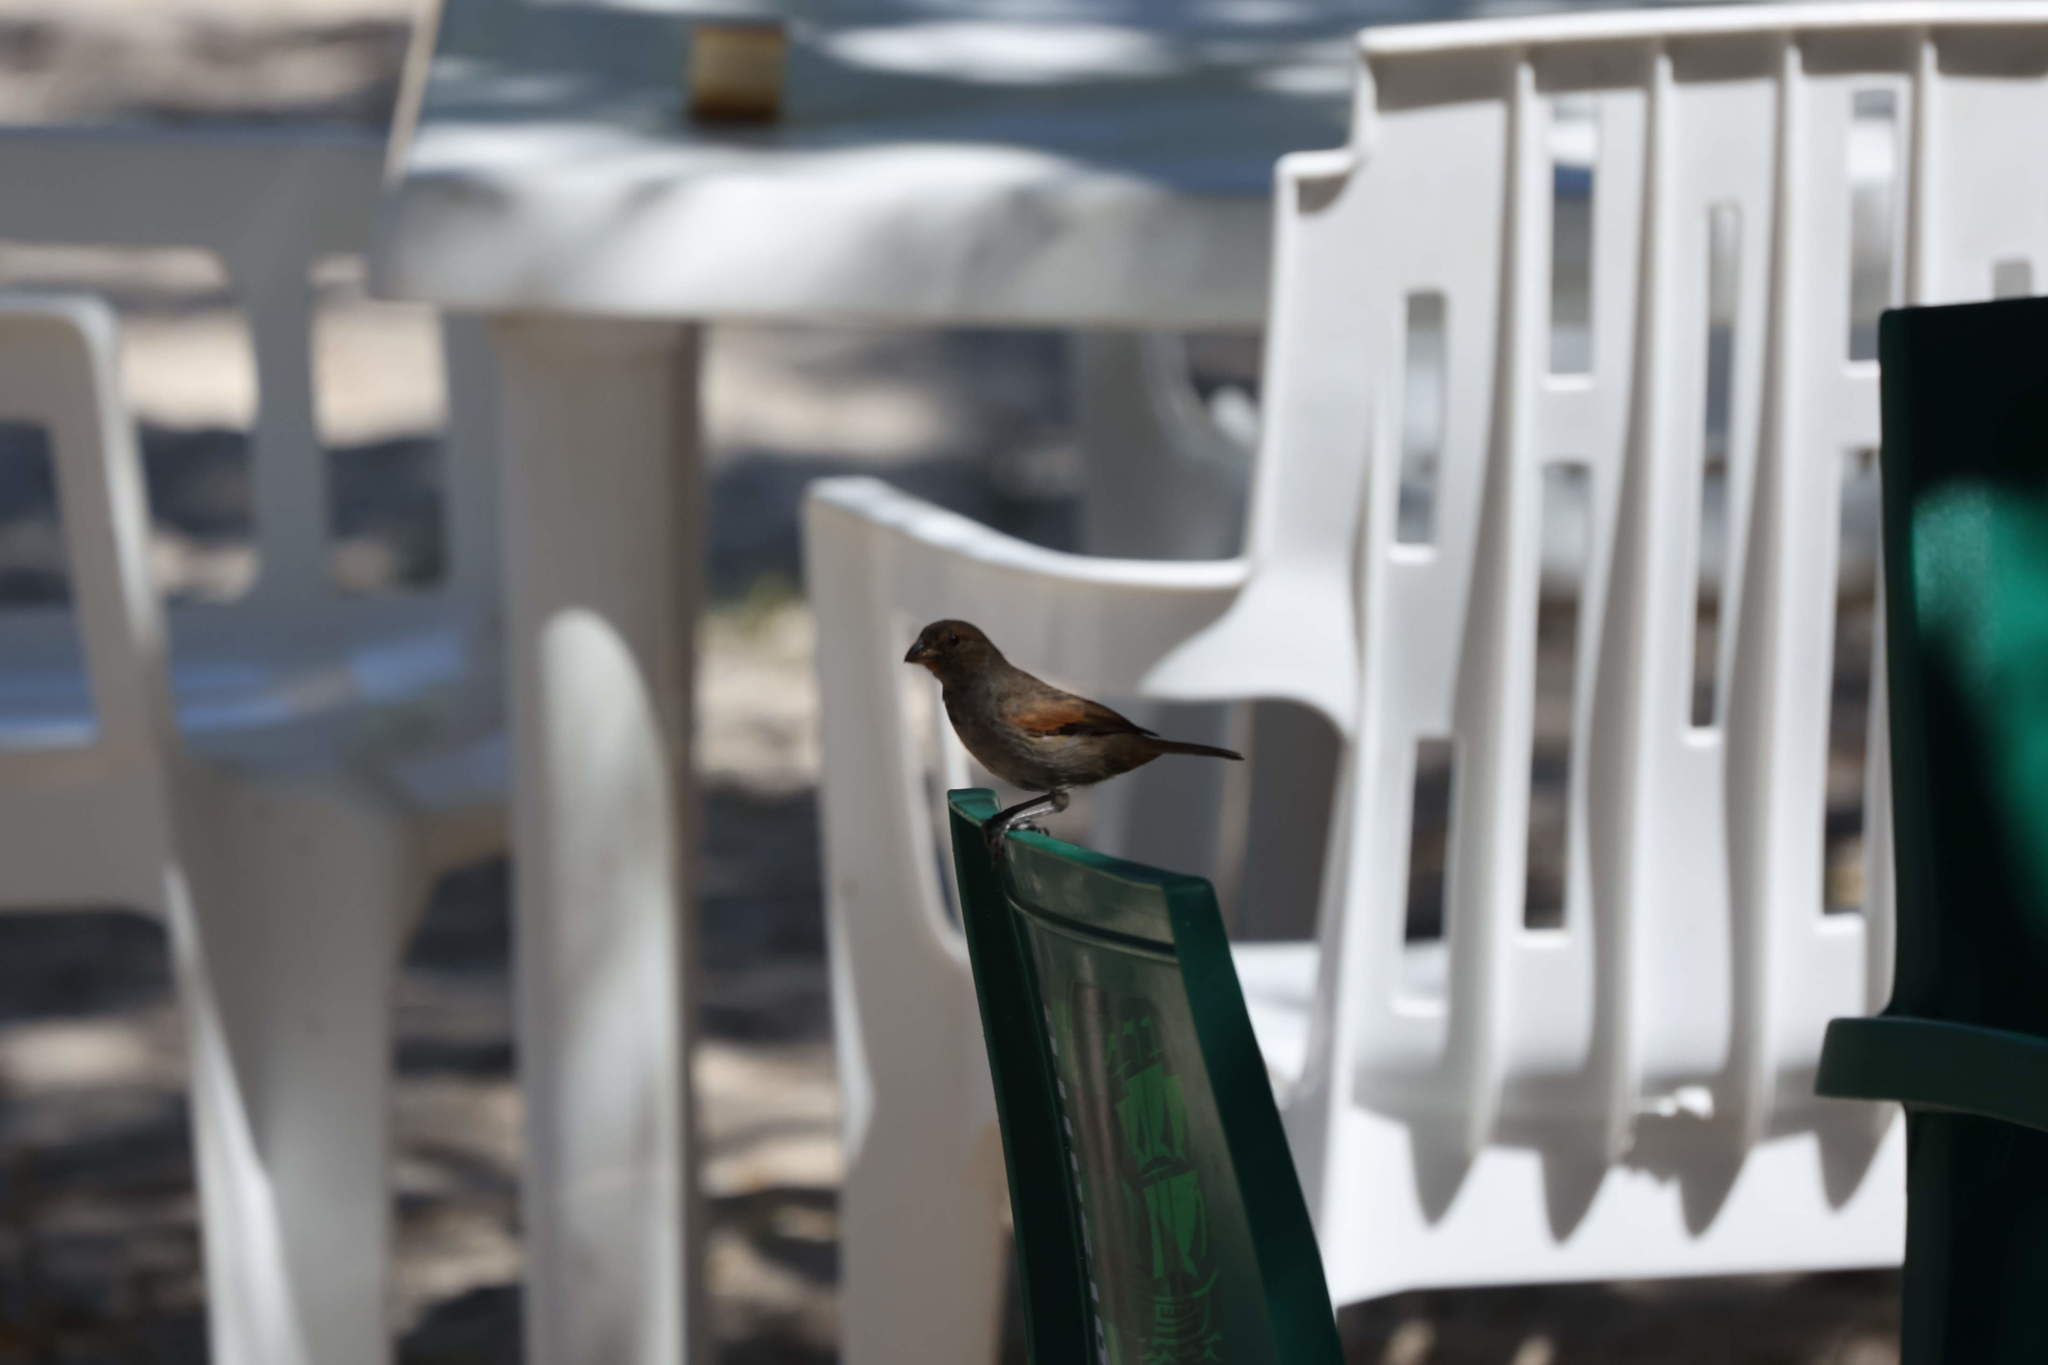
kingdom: Animalia
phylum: Chordata
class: Aves
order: Passeriformes
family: Thraupidae
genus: Loxigilla
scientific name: Loxigilla noctis
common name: Lesser antillean bullfinch
